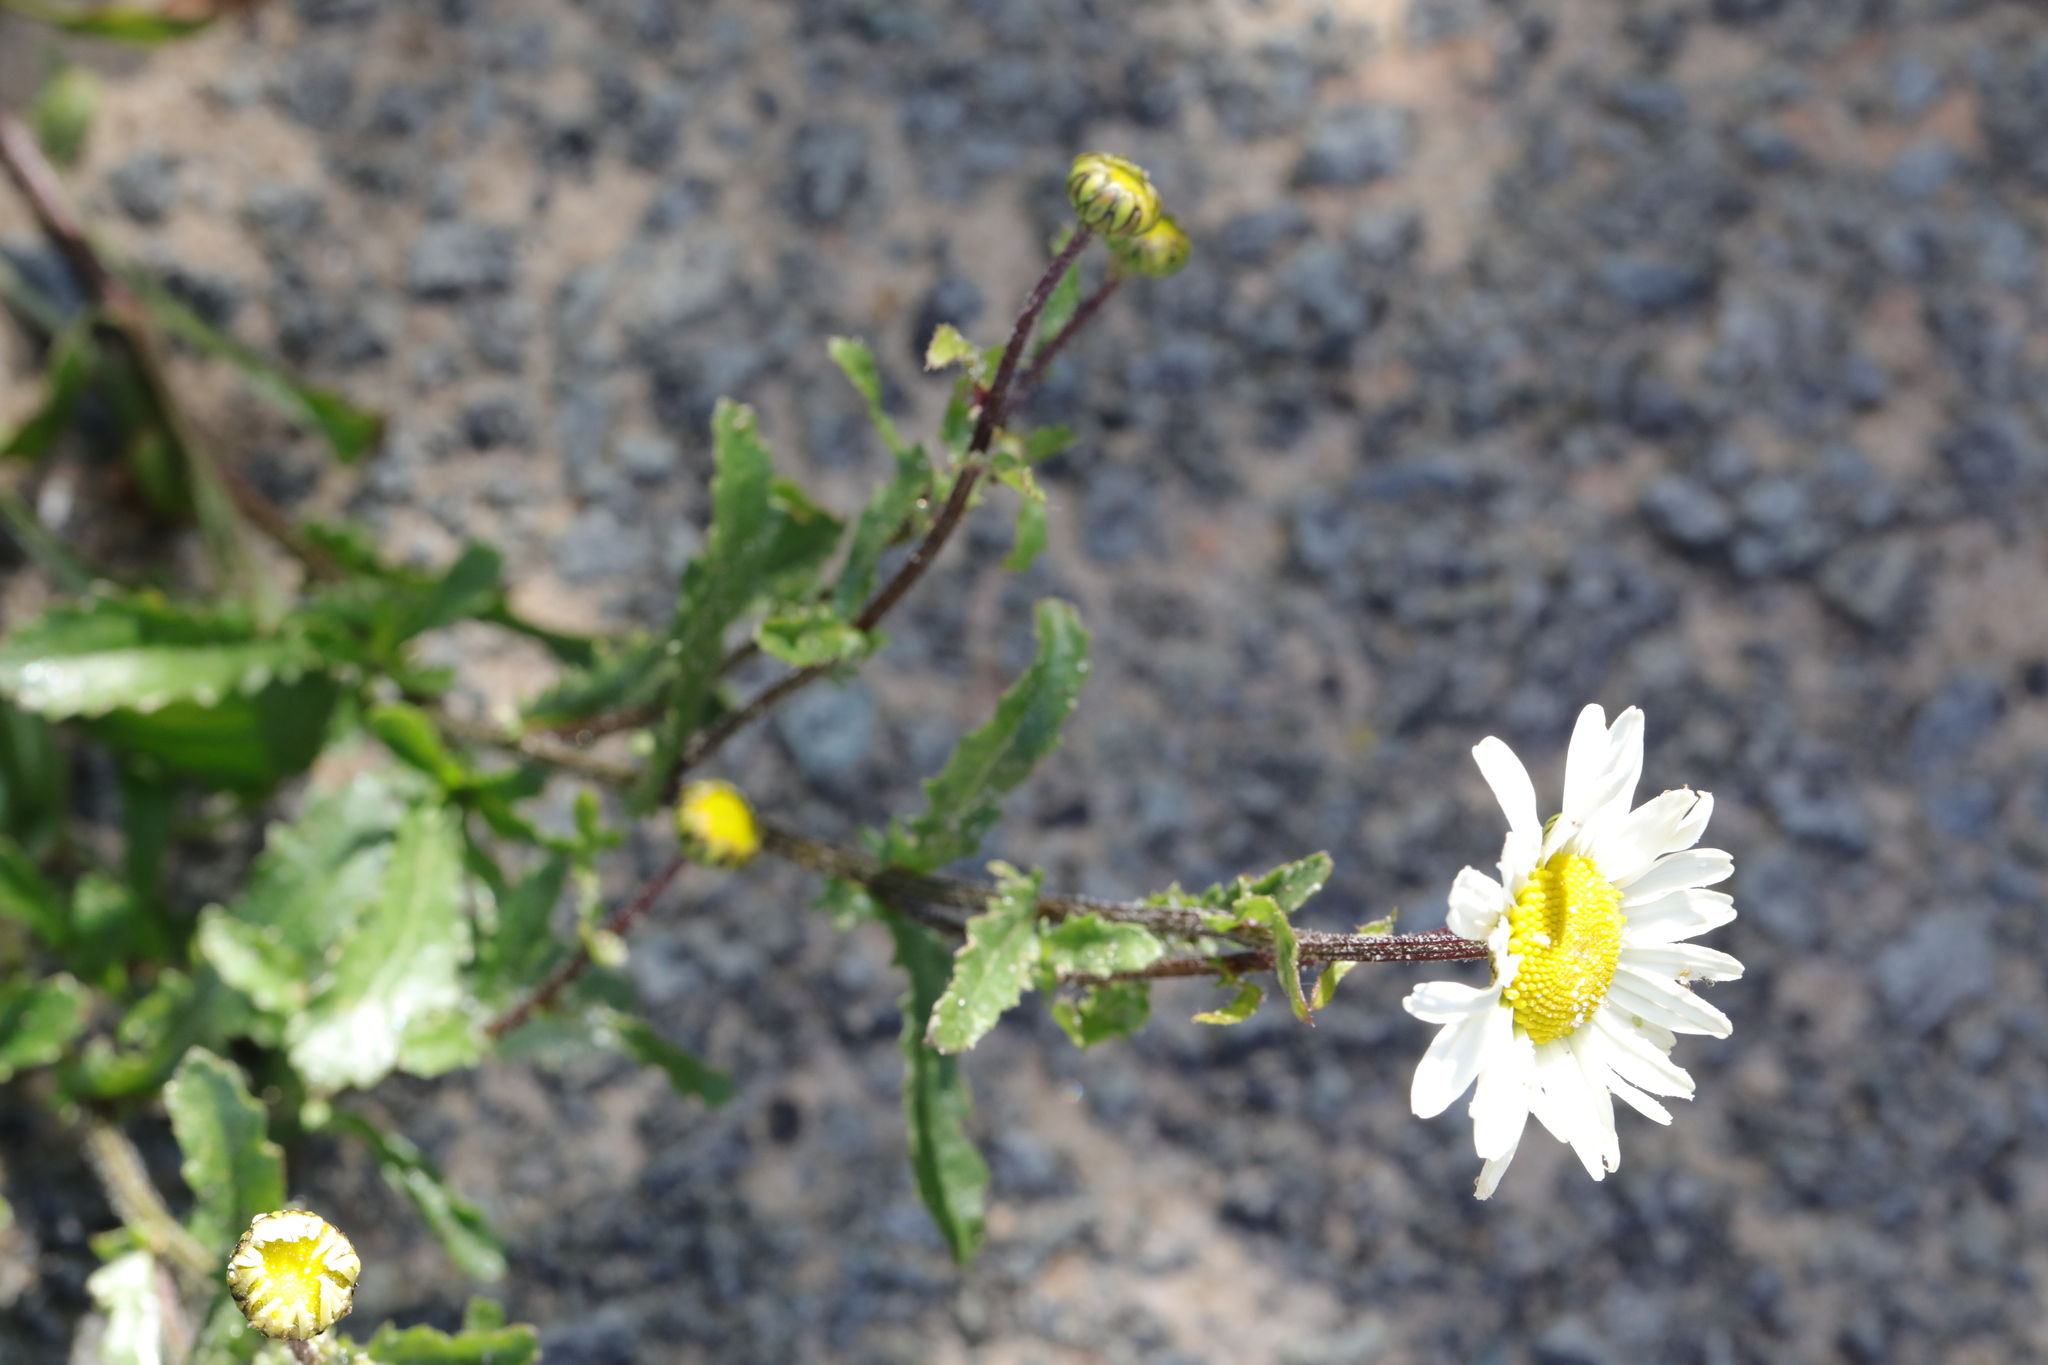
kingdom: Plantae
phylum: Tracheophyta
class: Magnoliopsida
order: Asterales
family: Asteraceae
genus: Leucanthemum
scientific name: Leucanthemum vulgare
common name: Oxeye daisy
